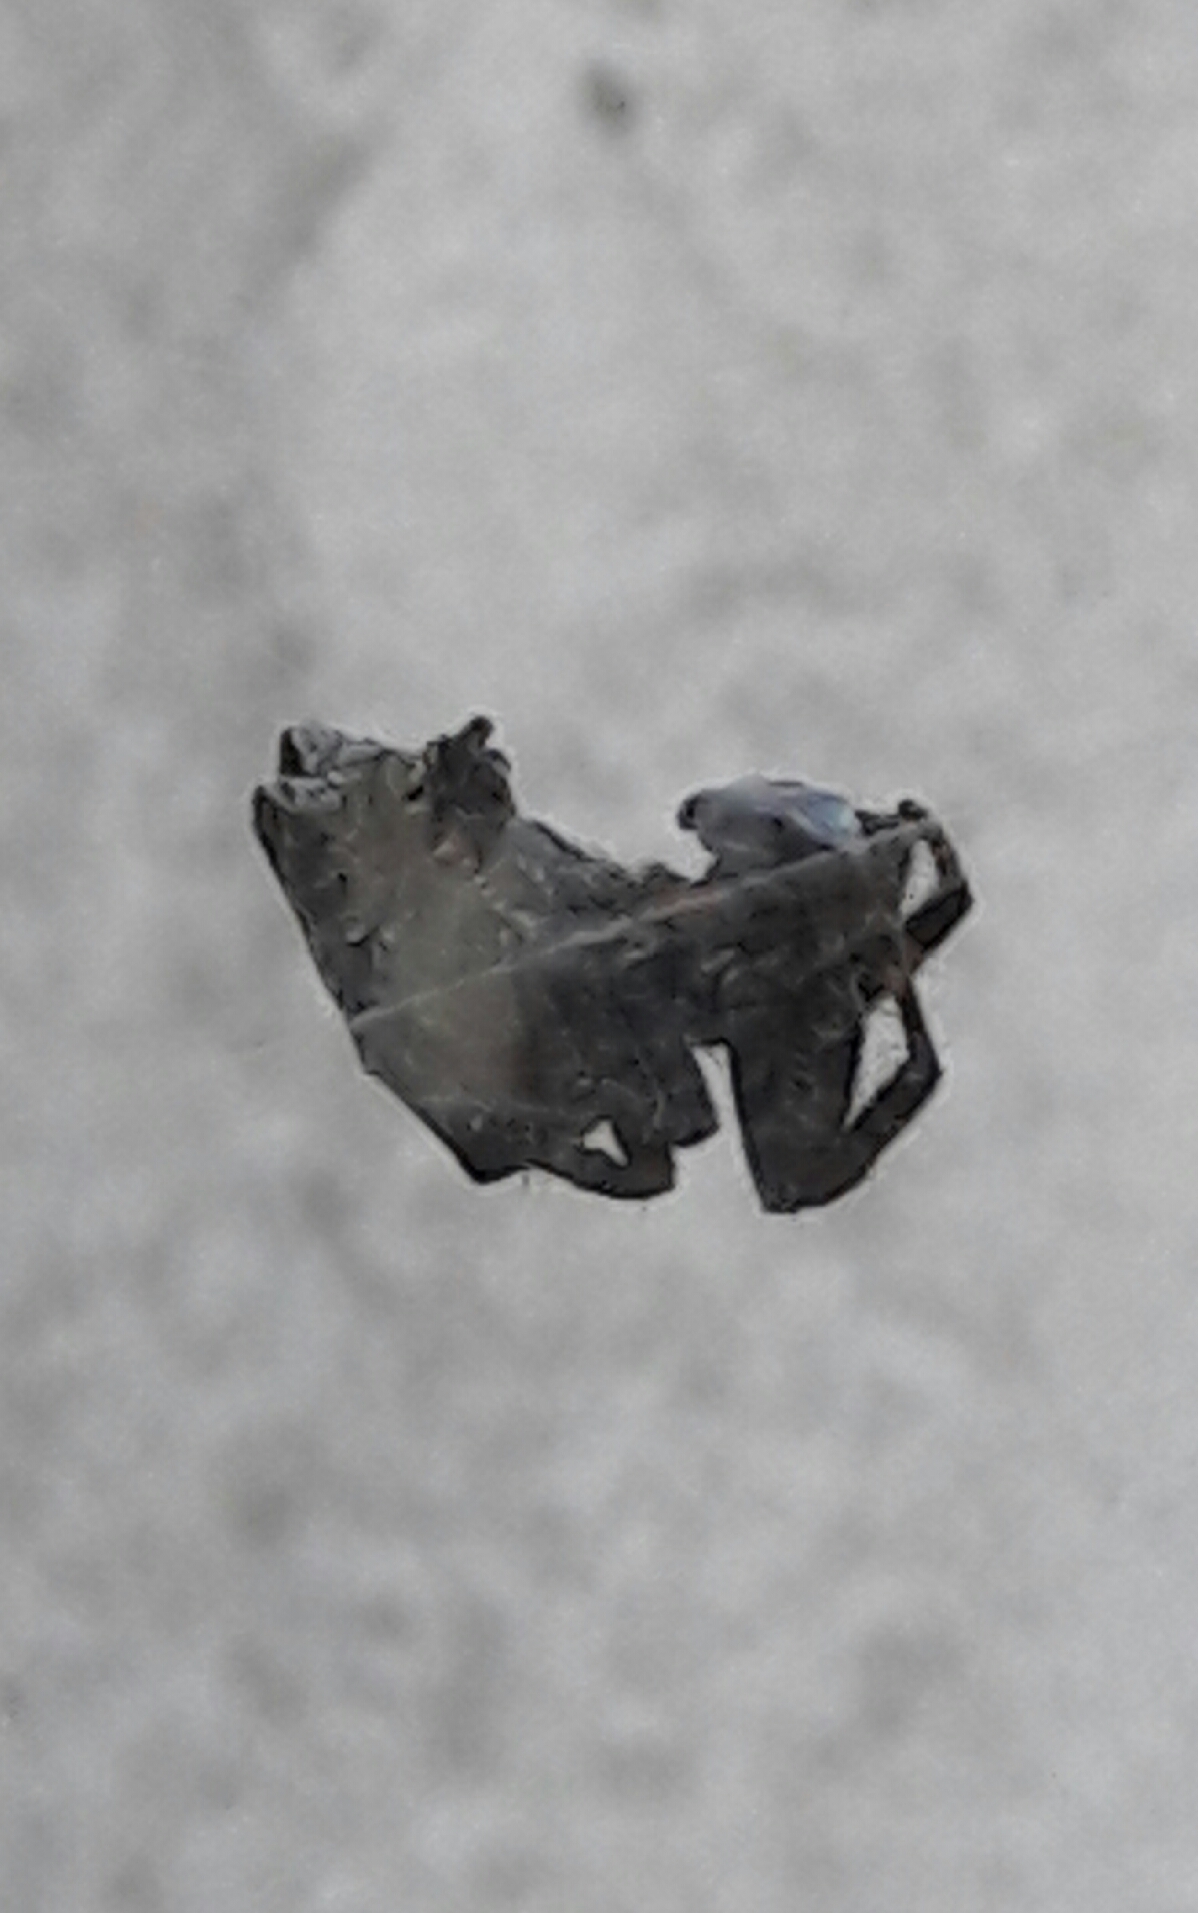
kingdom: Animalia
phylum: Arthropoda
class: Arachnida
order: Araneae
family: Araneidae
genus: Cyrtophora
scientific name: Cyrtophora citricola
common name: Orb weavers
